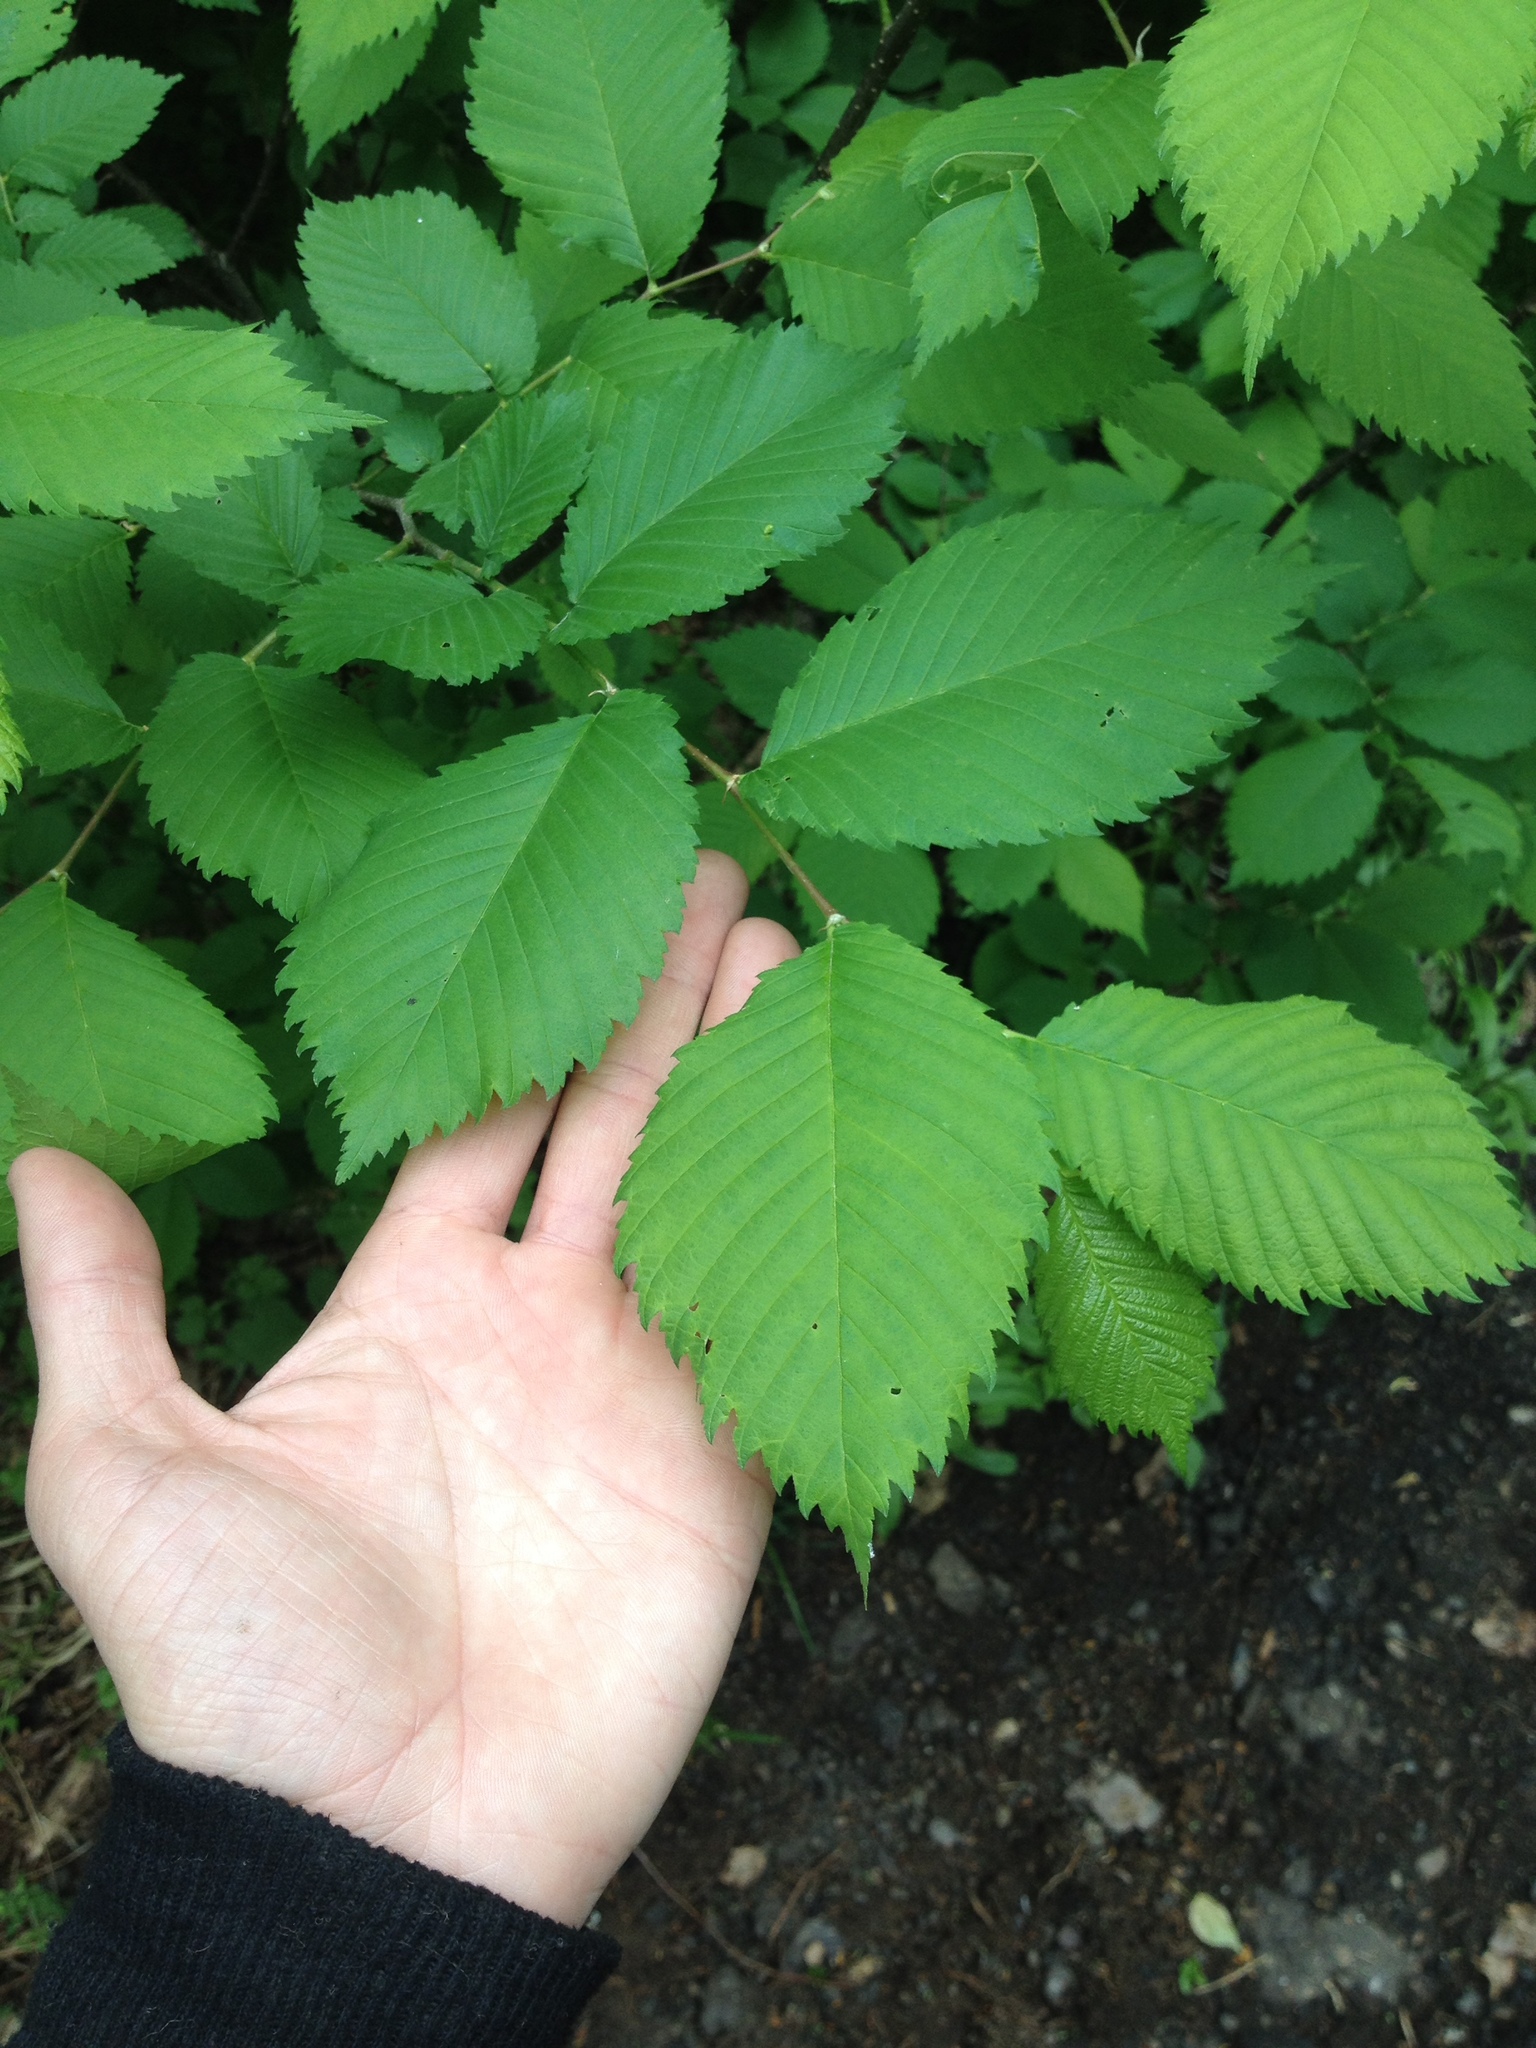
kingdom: Plantae
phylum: Tracheophyta
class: Magnoliopsida
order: Rosales
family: Ulmaceae
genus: Ulmus
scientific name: Ulmus laevis
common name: European white-elm
